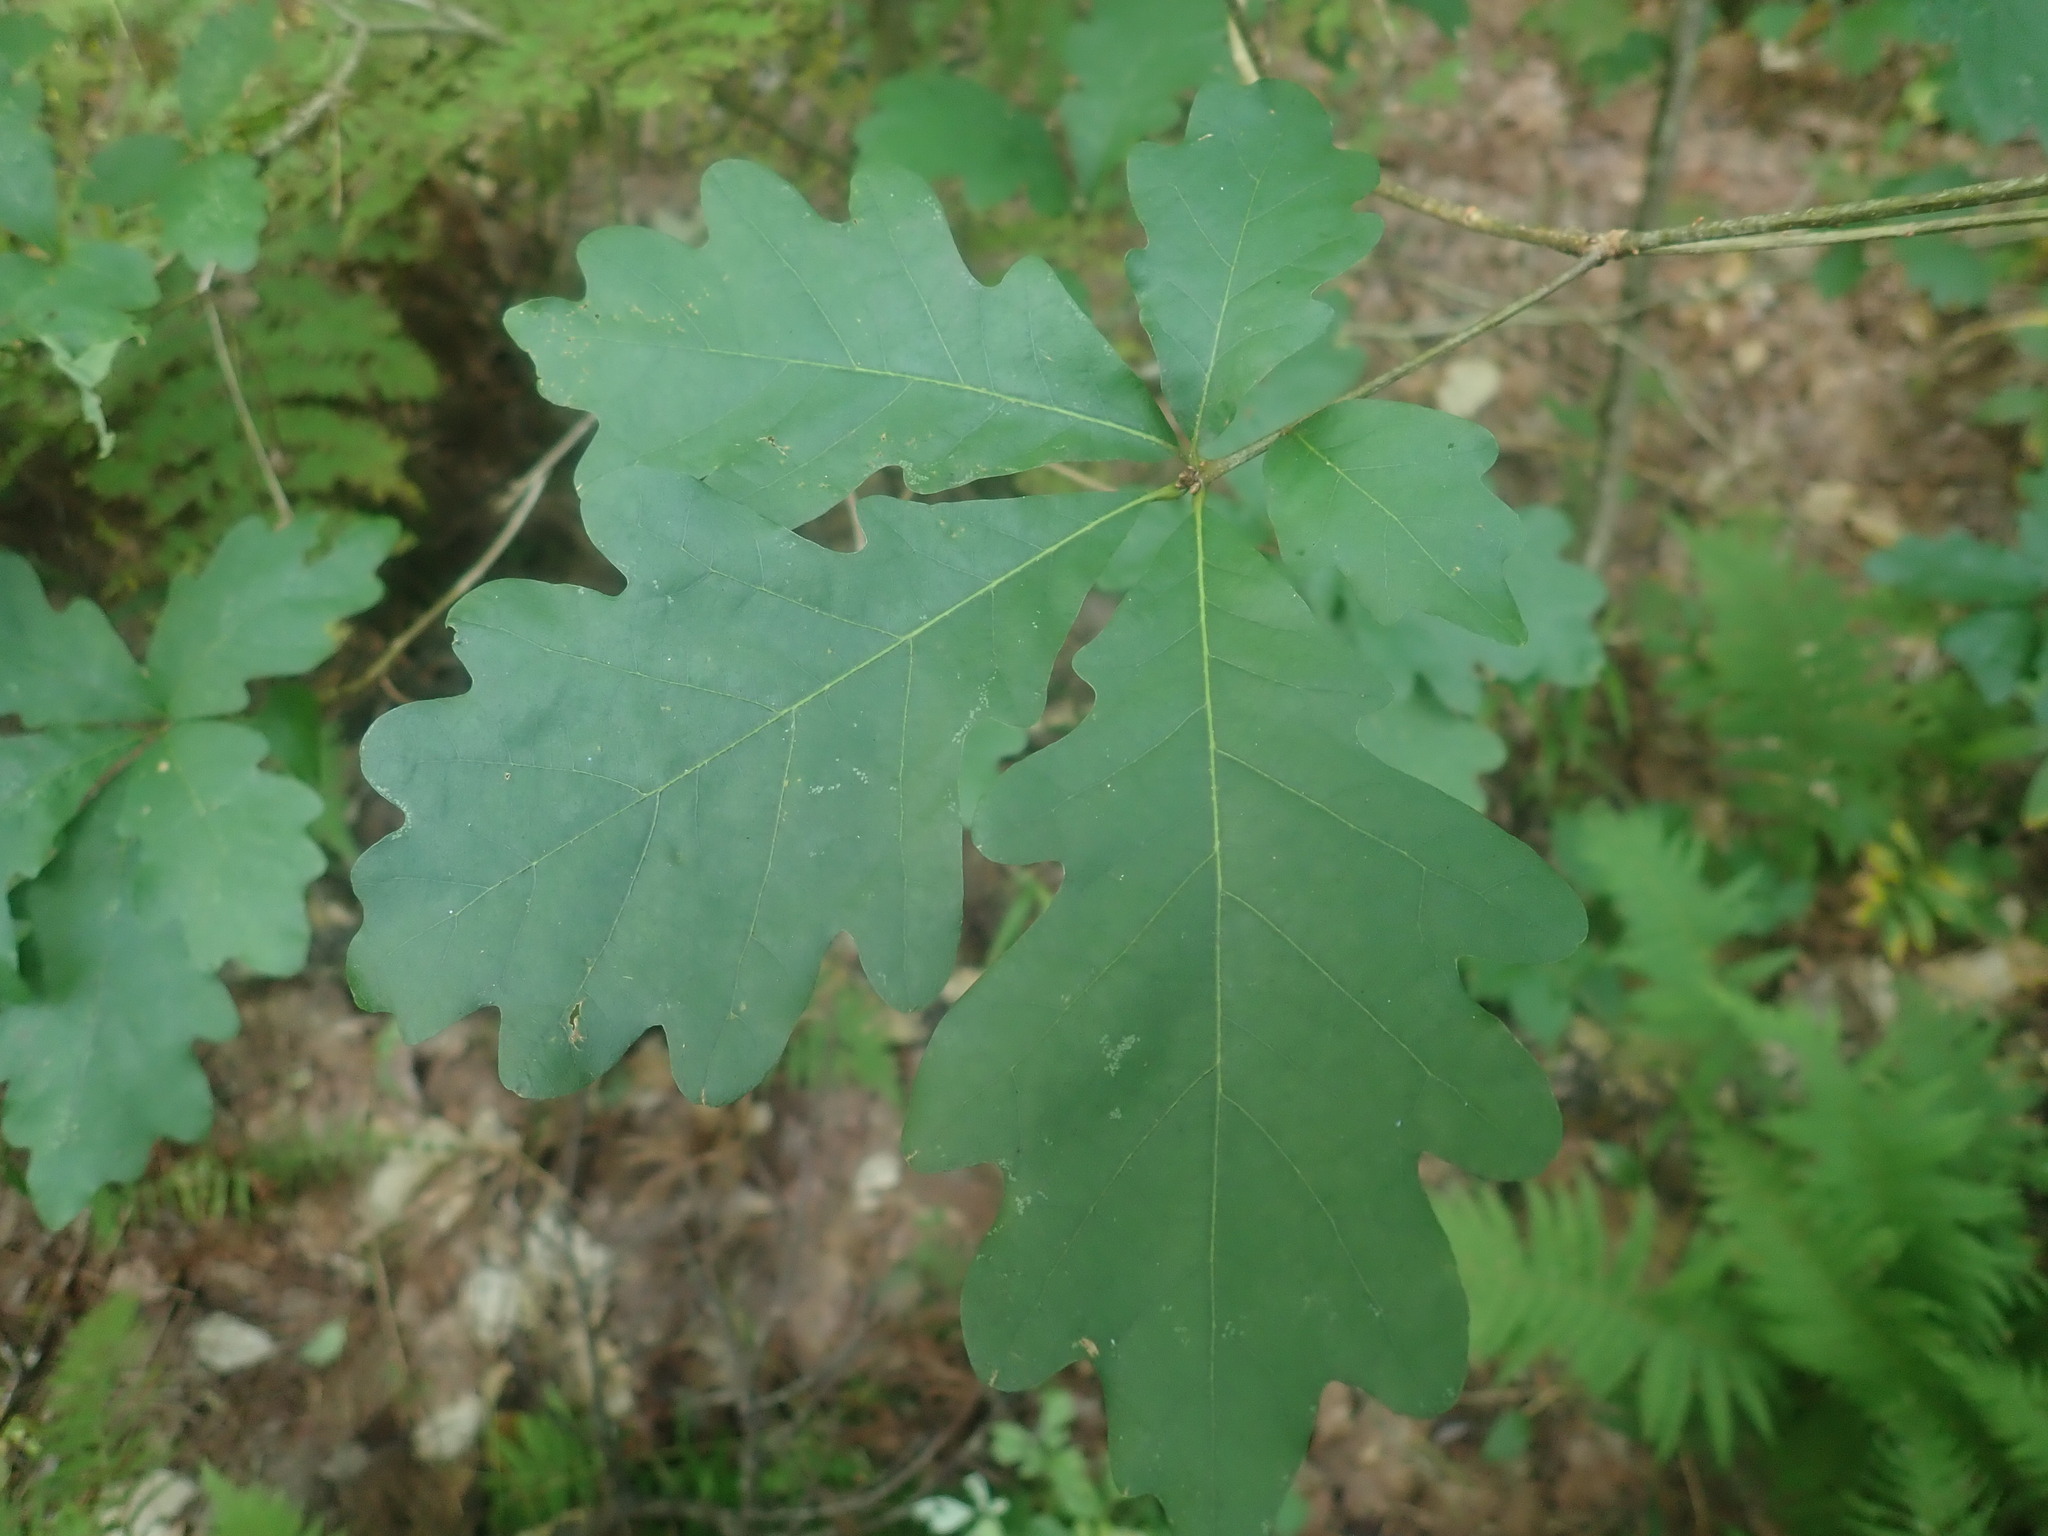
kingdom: Plantae
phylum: Tracheophyta
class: Magnoliopsida
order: Fagales
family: Fagaceae
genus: Quercus
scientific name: Quercus alba
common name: White oak
